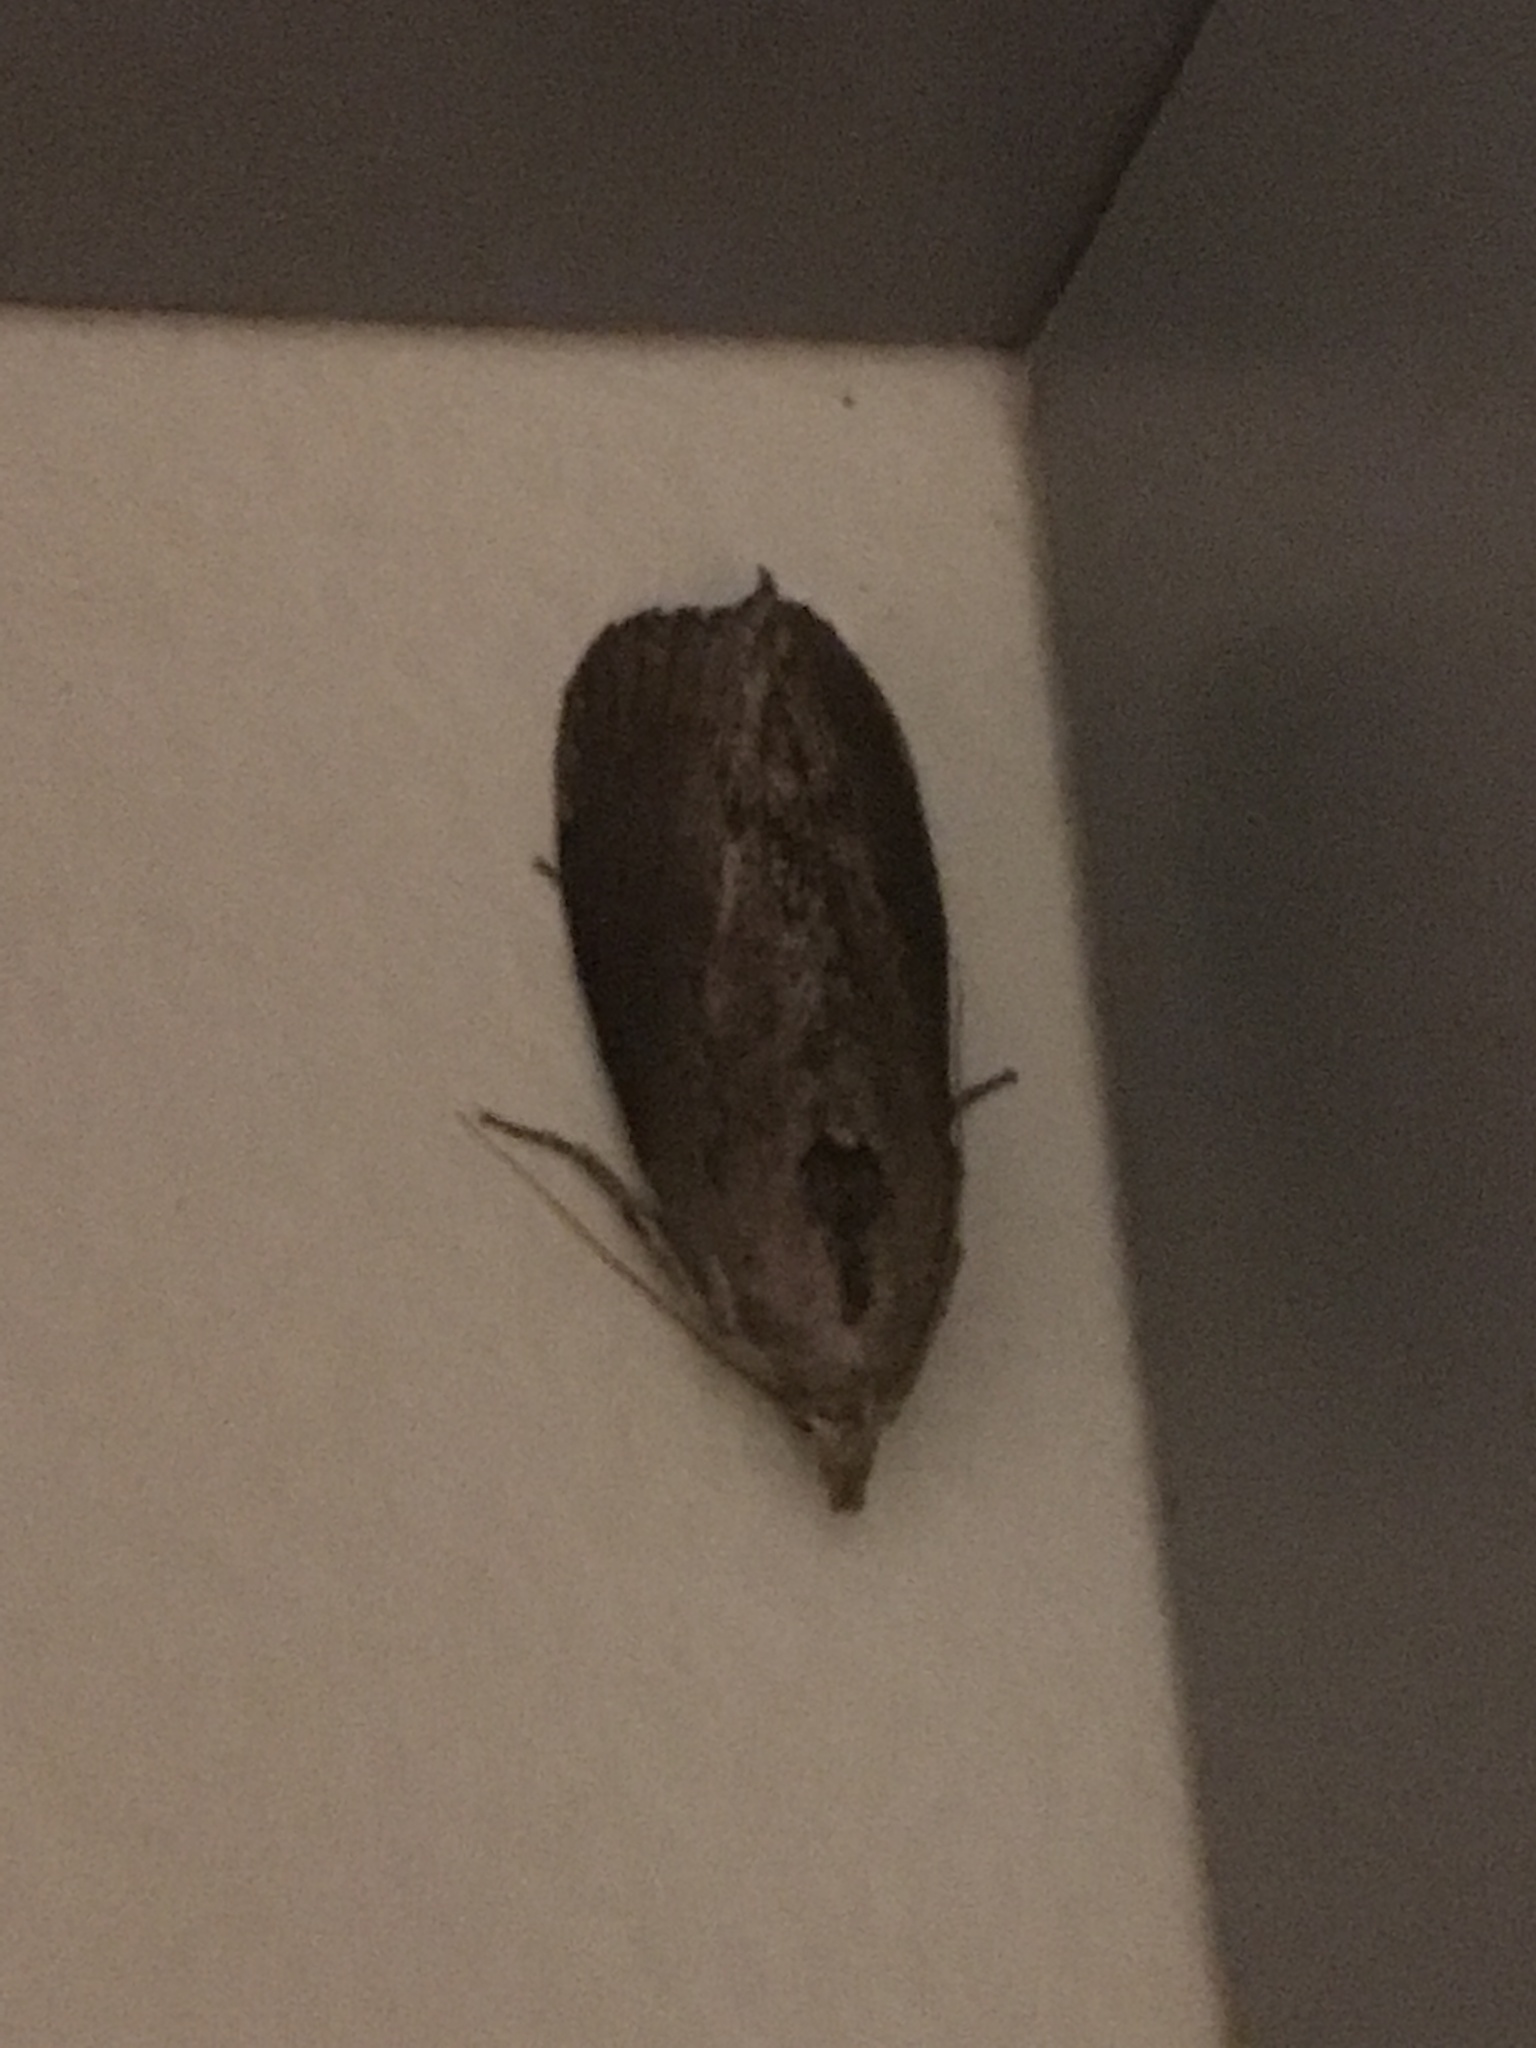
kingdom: Animalia
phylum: Arthropoda
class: Insecta
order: Lepidoptera
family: Pyralidae
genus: Galleria
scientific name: Galleria mellonella
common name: Greater wax moth
